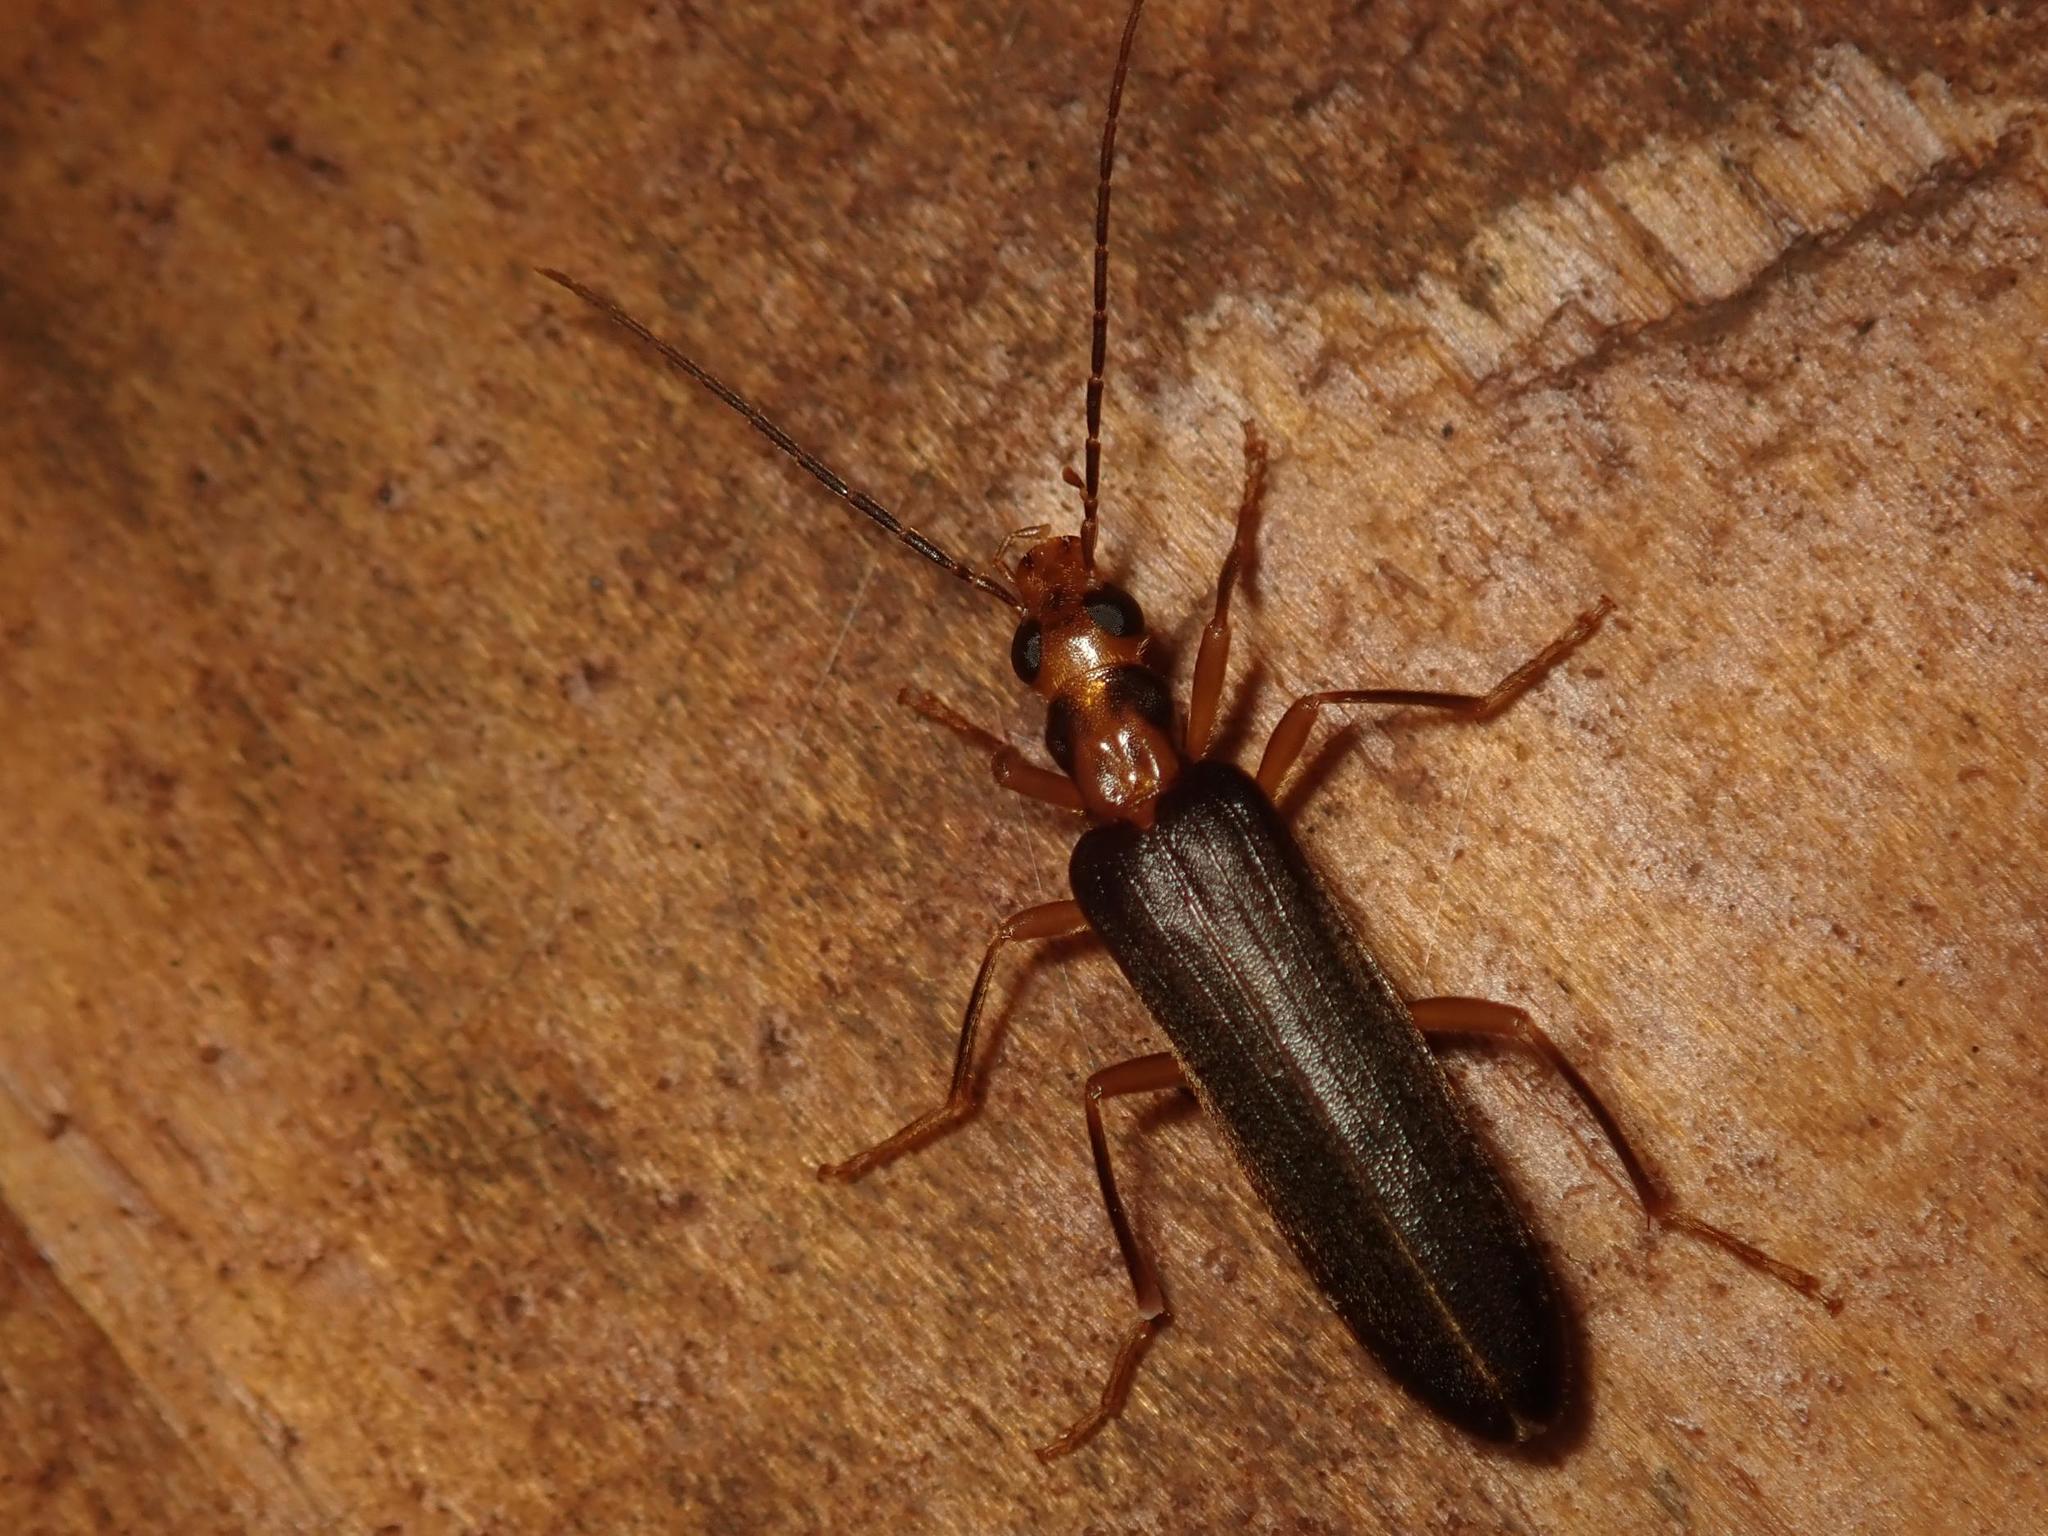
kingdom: Animalia
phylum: Arthropoda
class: Insecta
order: Coleoptera
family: Oedemeridae
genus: Nacerdes
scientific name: Nacerdes carniolica
